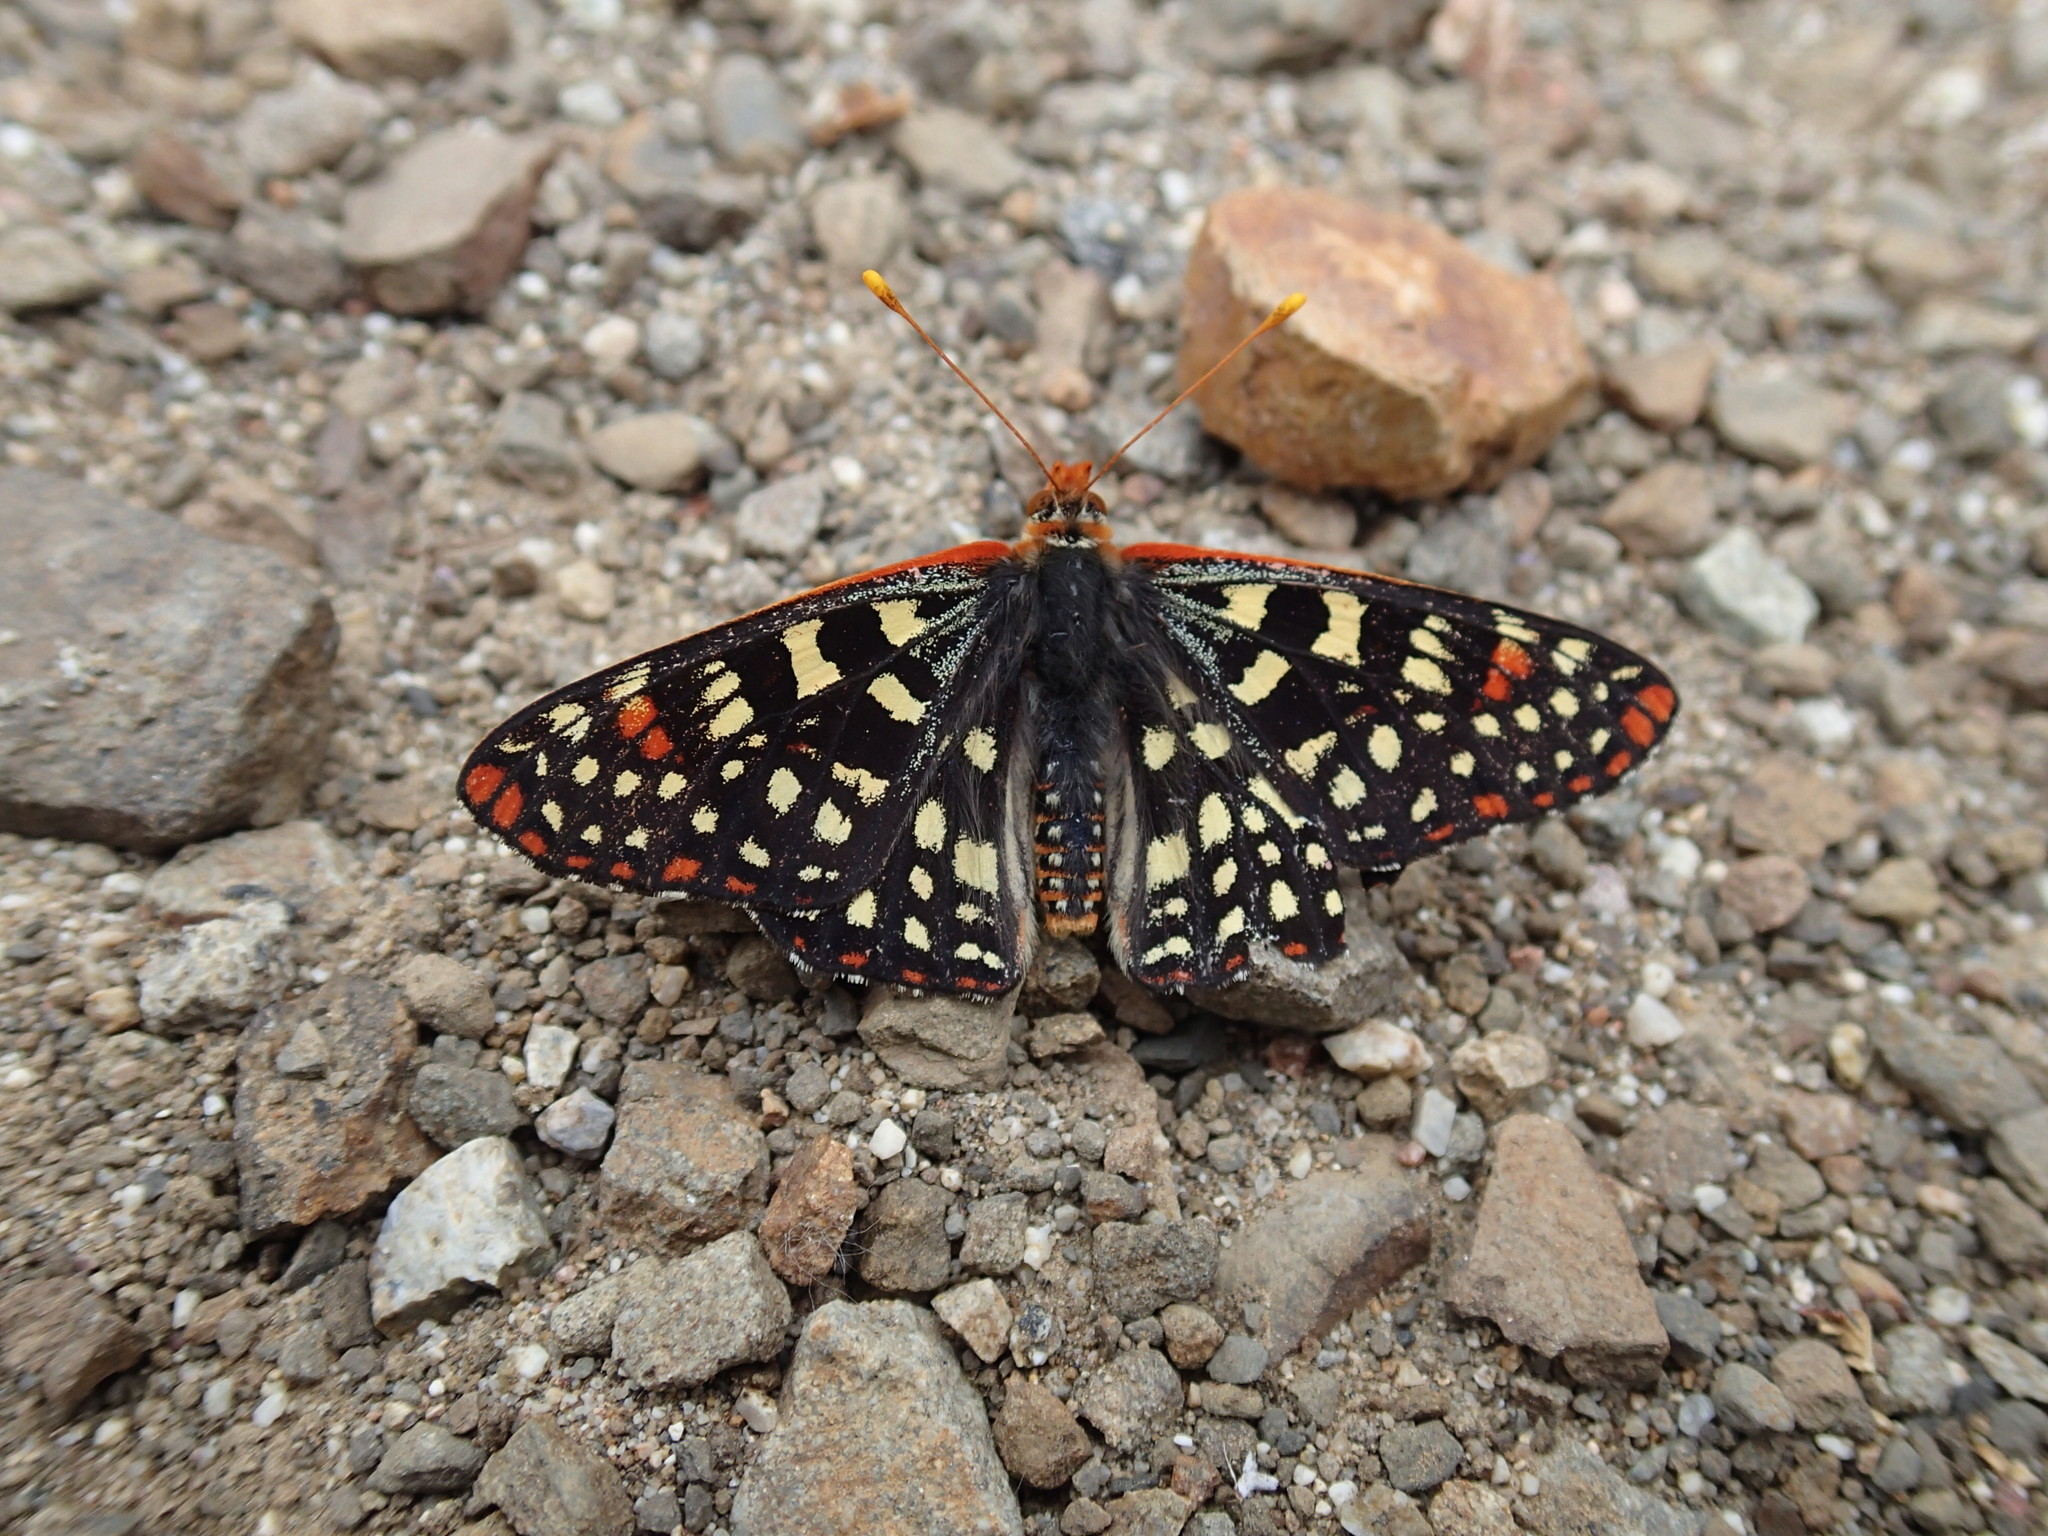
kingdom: Animalia
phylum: Arthropoda
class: Insecta
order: Lepidoptera
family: Nymphalidae
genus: Occidryas
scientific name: Occidryas chalcedona
